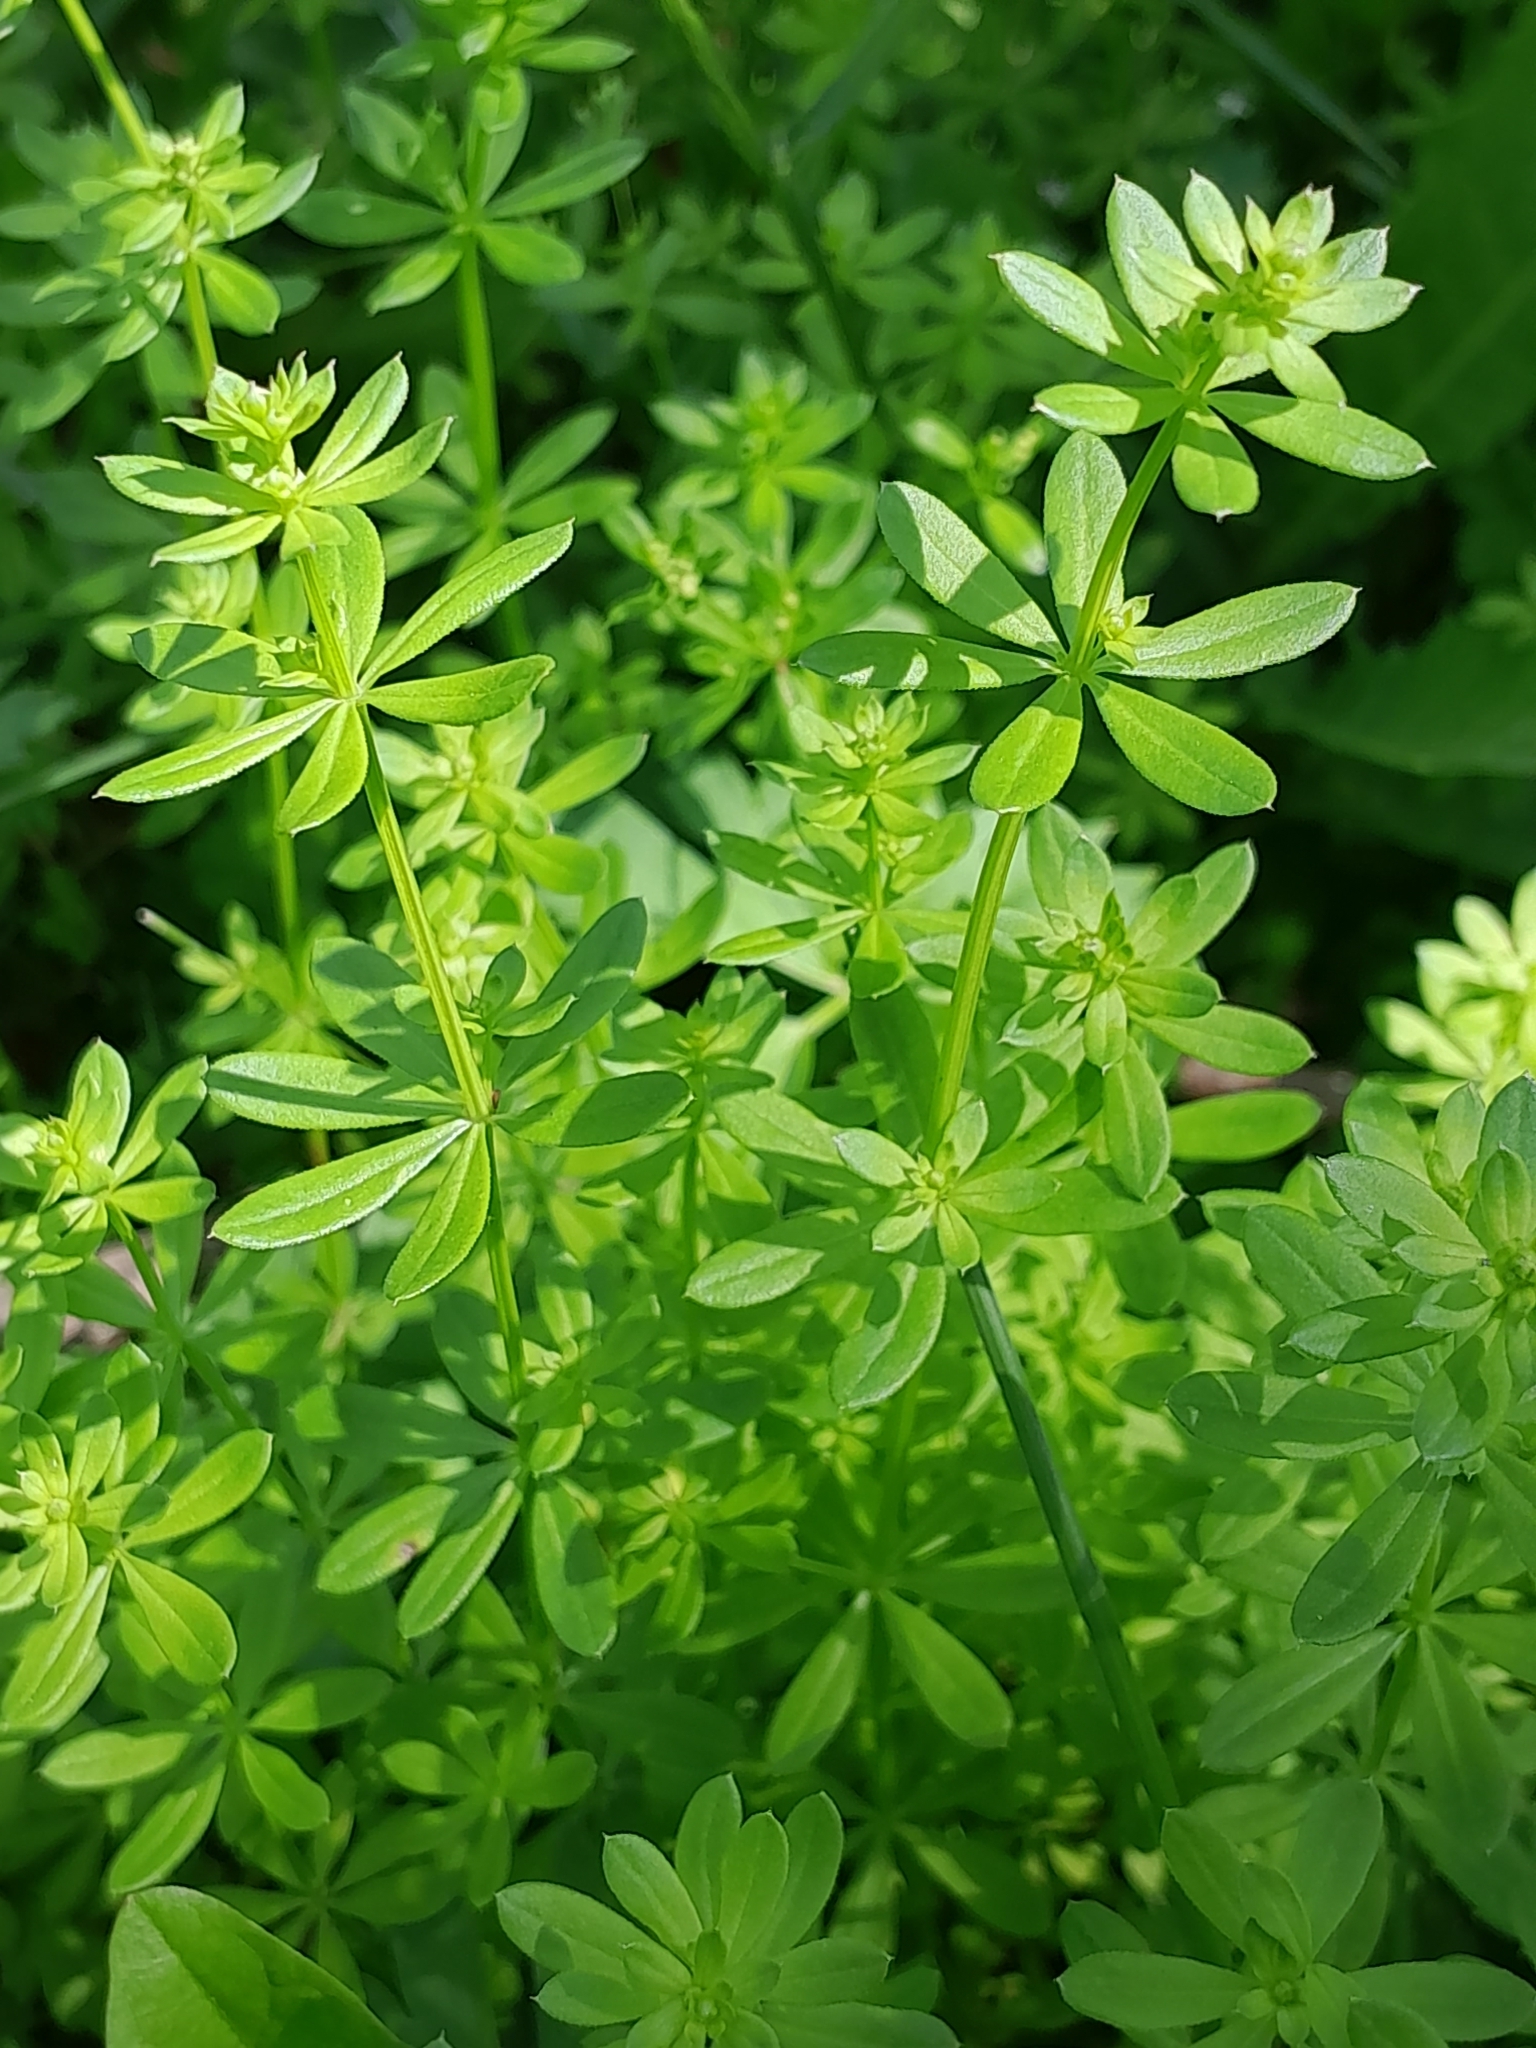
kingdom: Plantae
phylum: Tracheophyta
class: Magnoliopsida
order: Gentianales
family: Rubiaceae
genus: Galium
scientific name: Galium mollugo
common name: Hedge bedstraw
